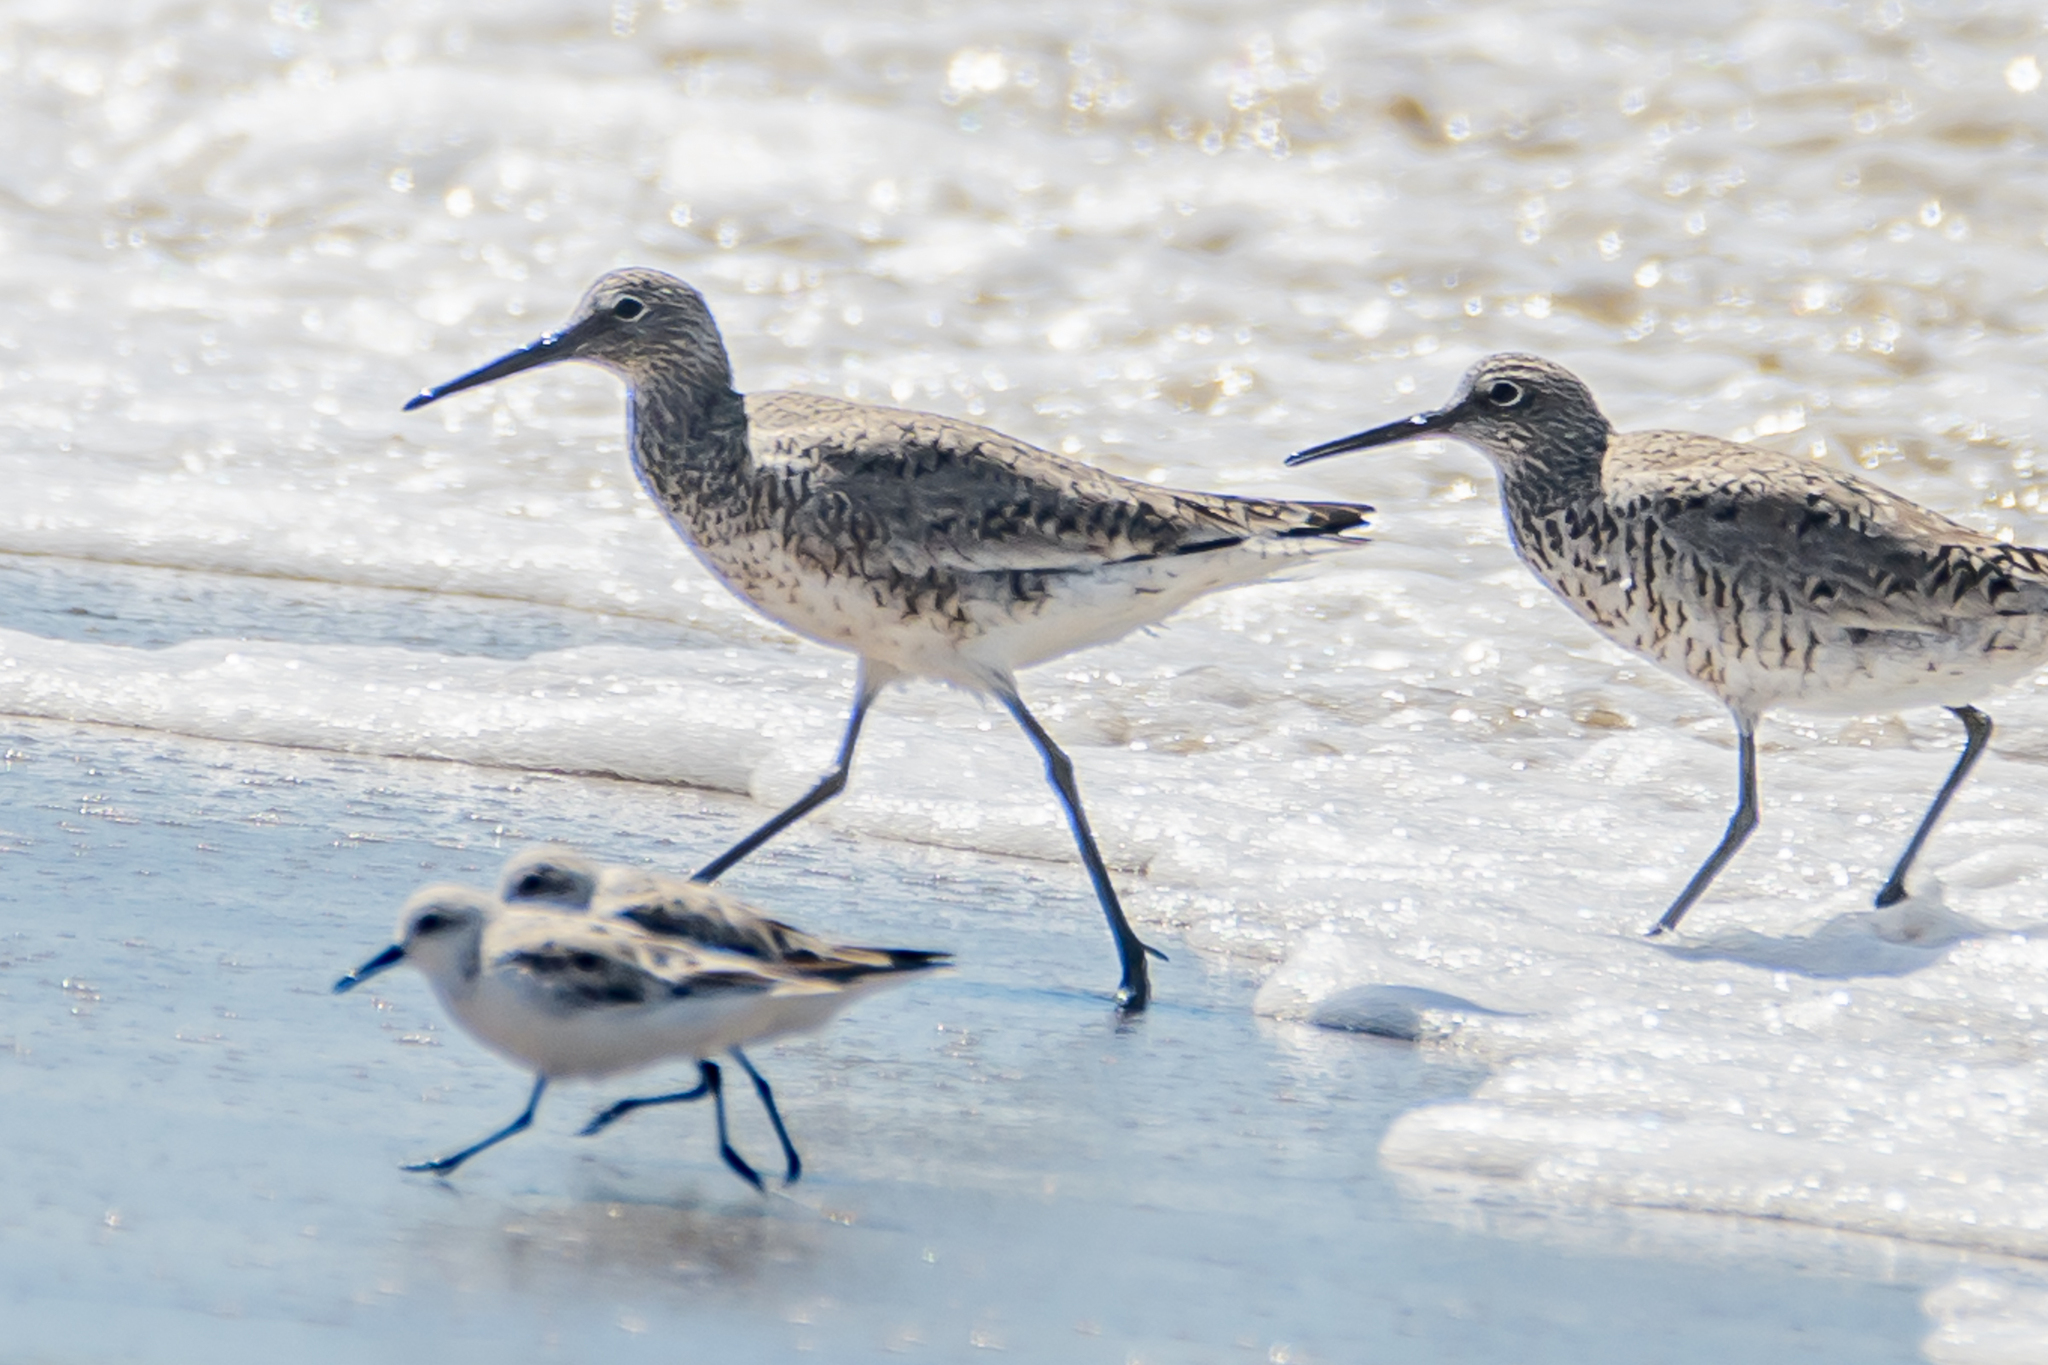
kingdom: Animalia
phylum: Chordata
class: Aves
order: Charadriiformes
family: Scolopacidae
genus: Tringa
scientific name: Tringa semipalmata
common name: Willet
